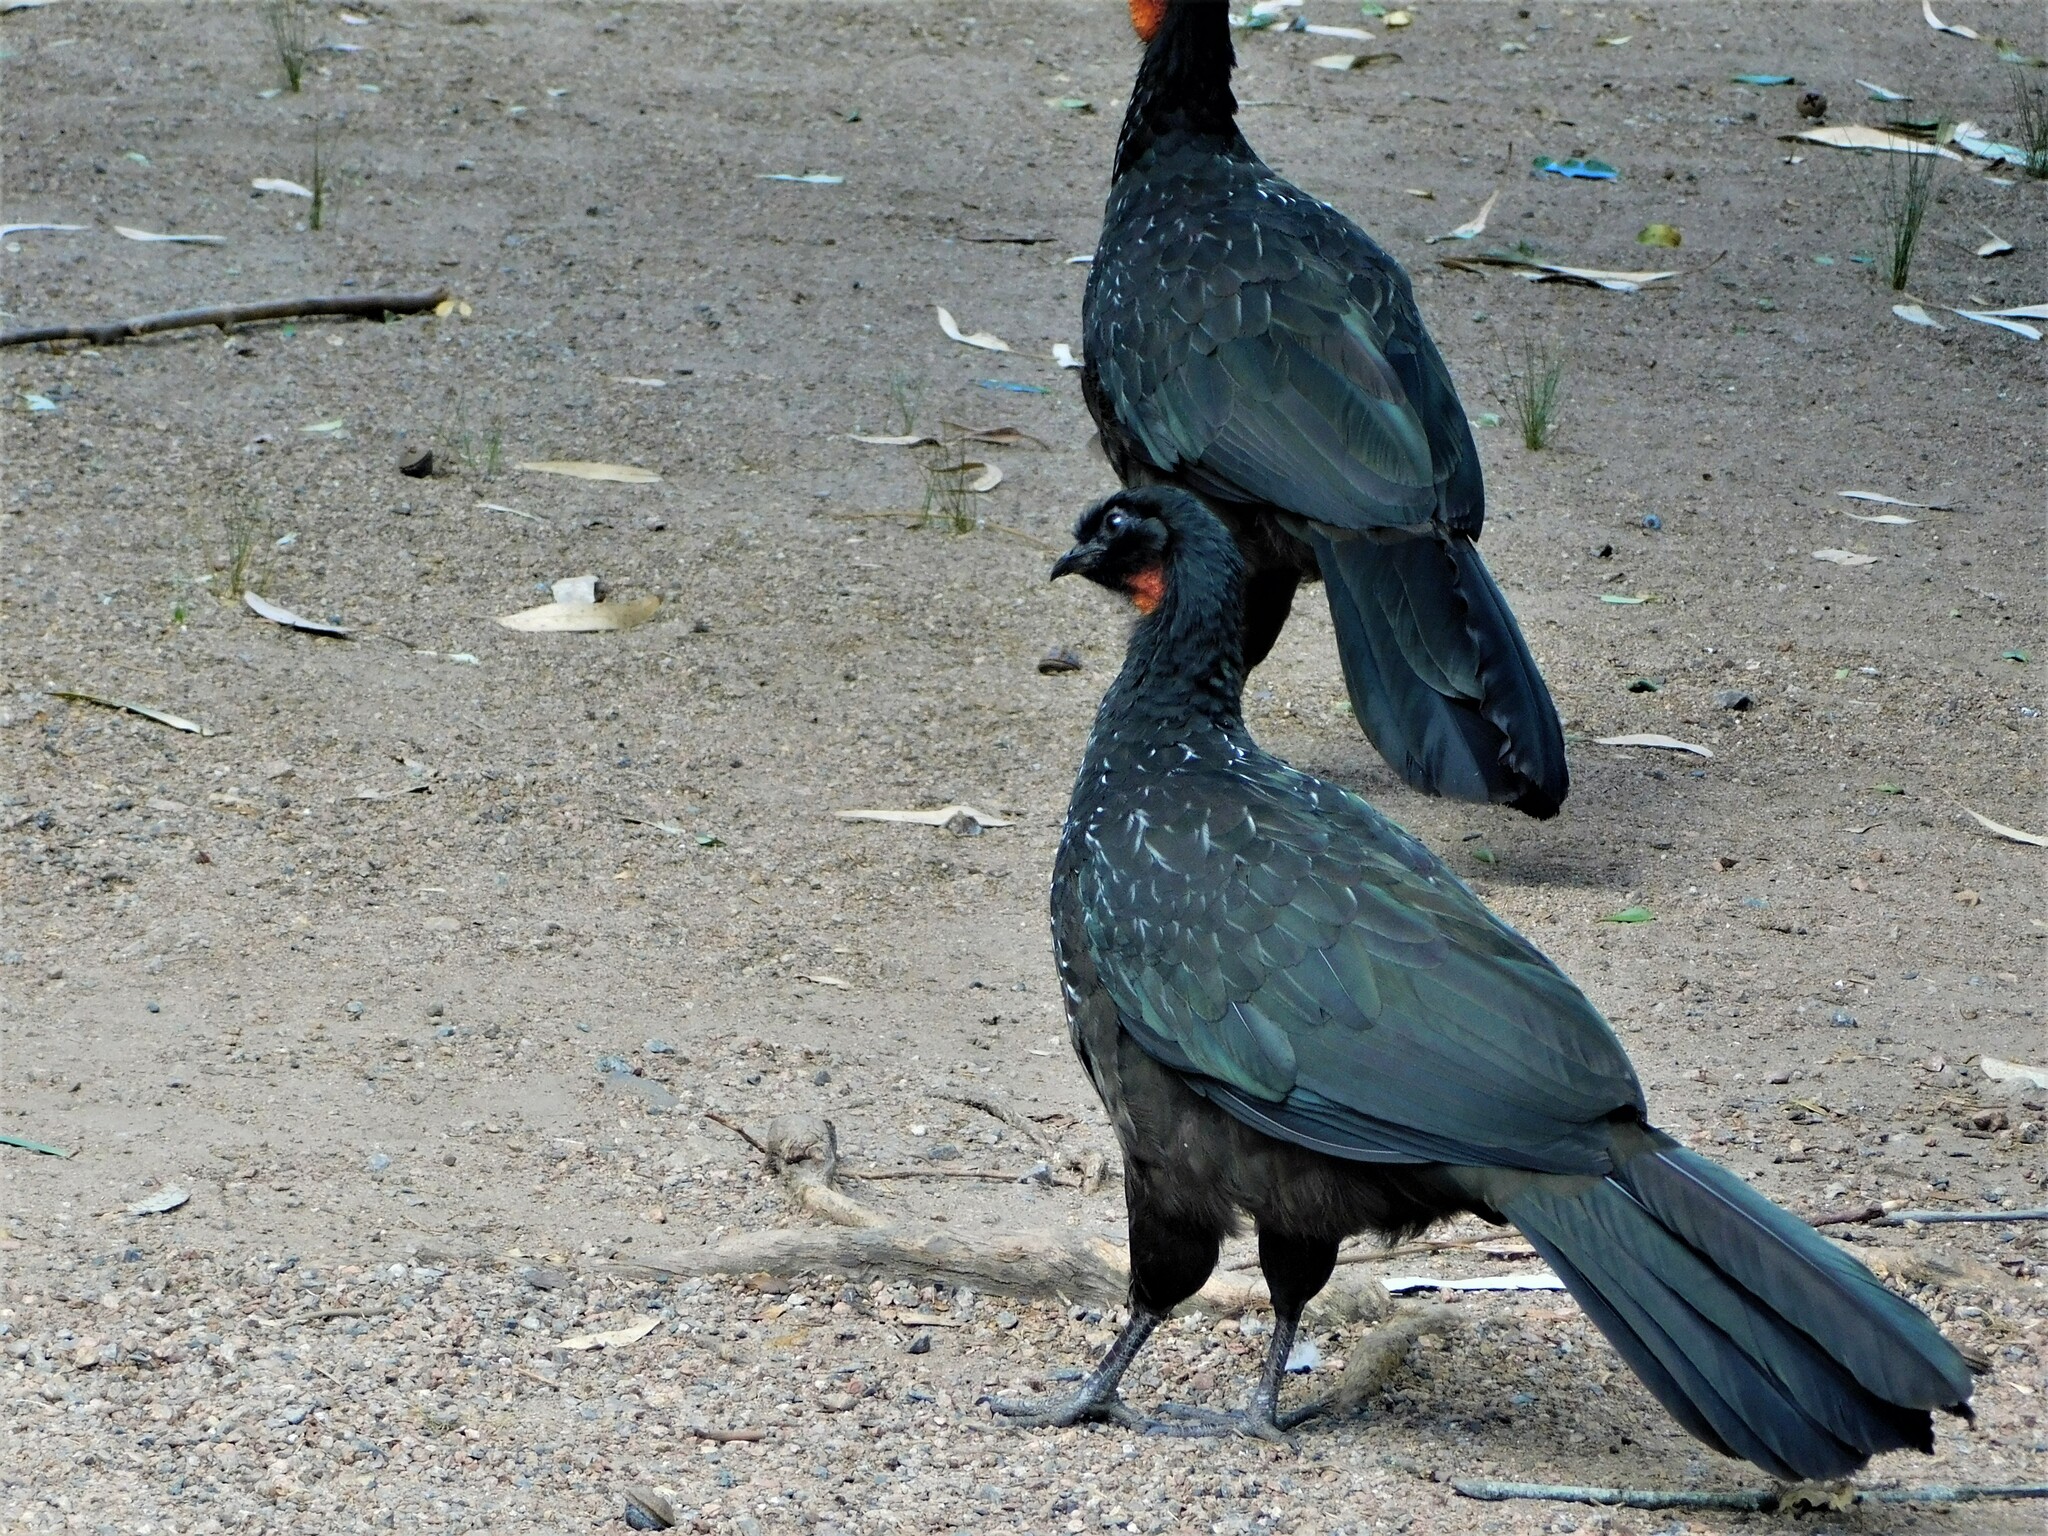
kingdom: Animalia
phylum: Chordata
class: Aves
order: Galliformes
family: Cracidae
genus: Penelope
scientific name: Penelope obscura
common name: Dusky-legged guan
